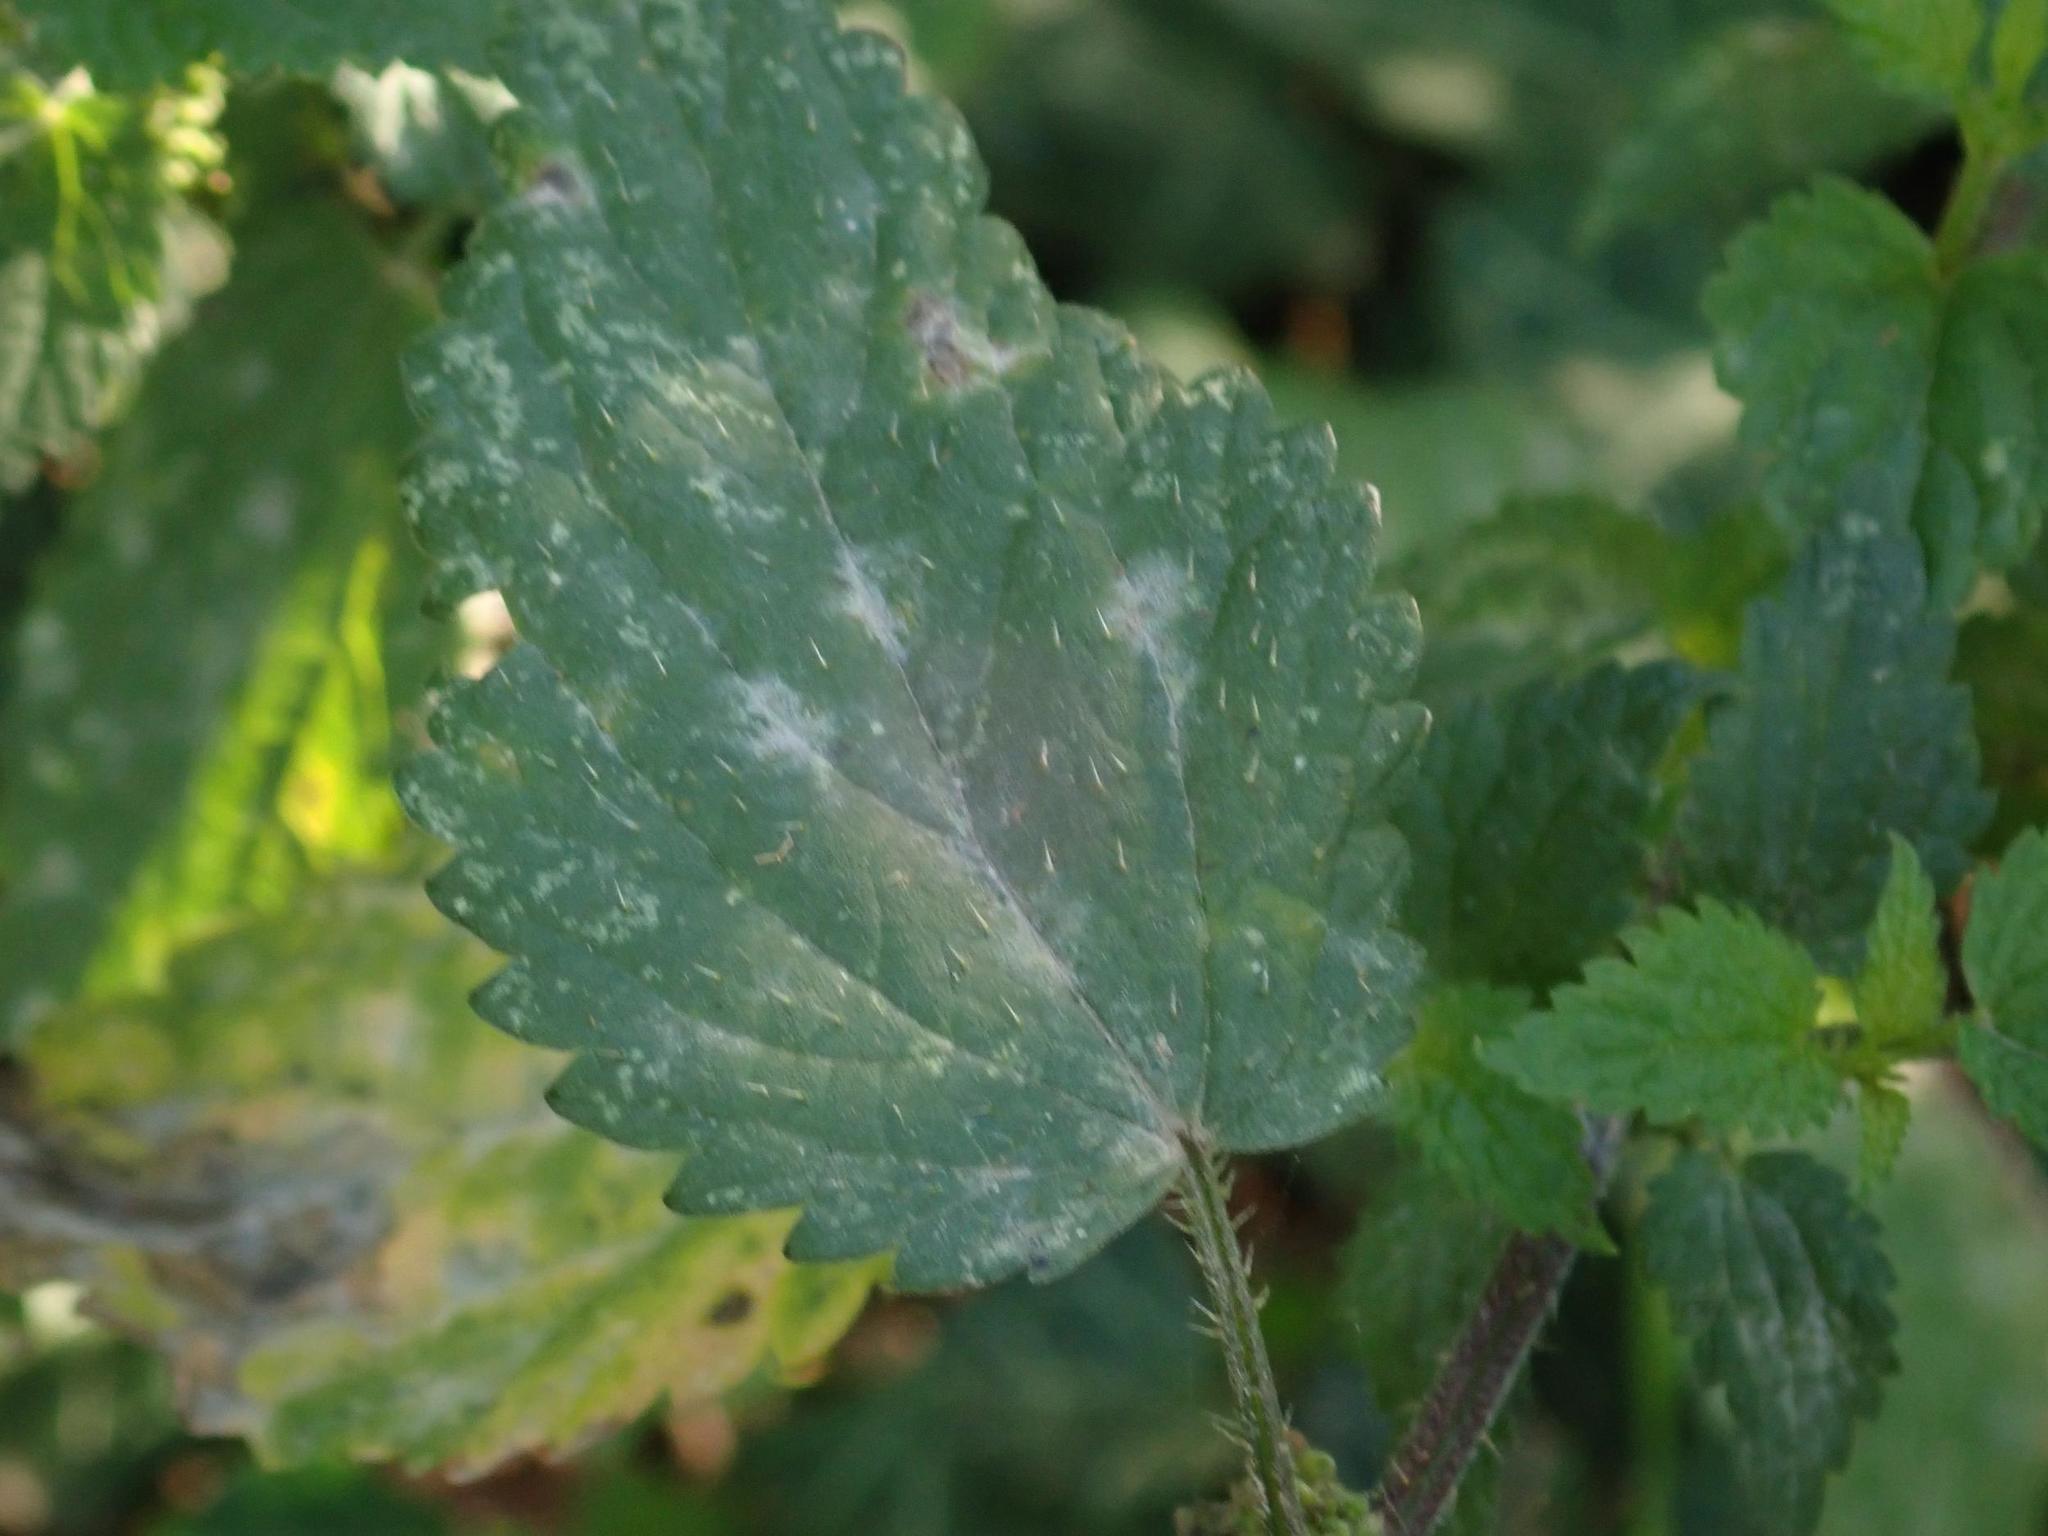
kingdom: Fungi
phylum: Ascomycota
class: Leotiomycetes
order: Helotiales
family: Erysiphaceae
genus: Erysiphe
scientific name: Erysiphe urticae
